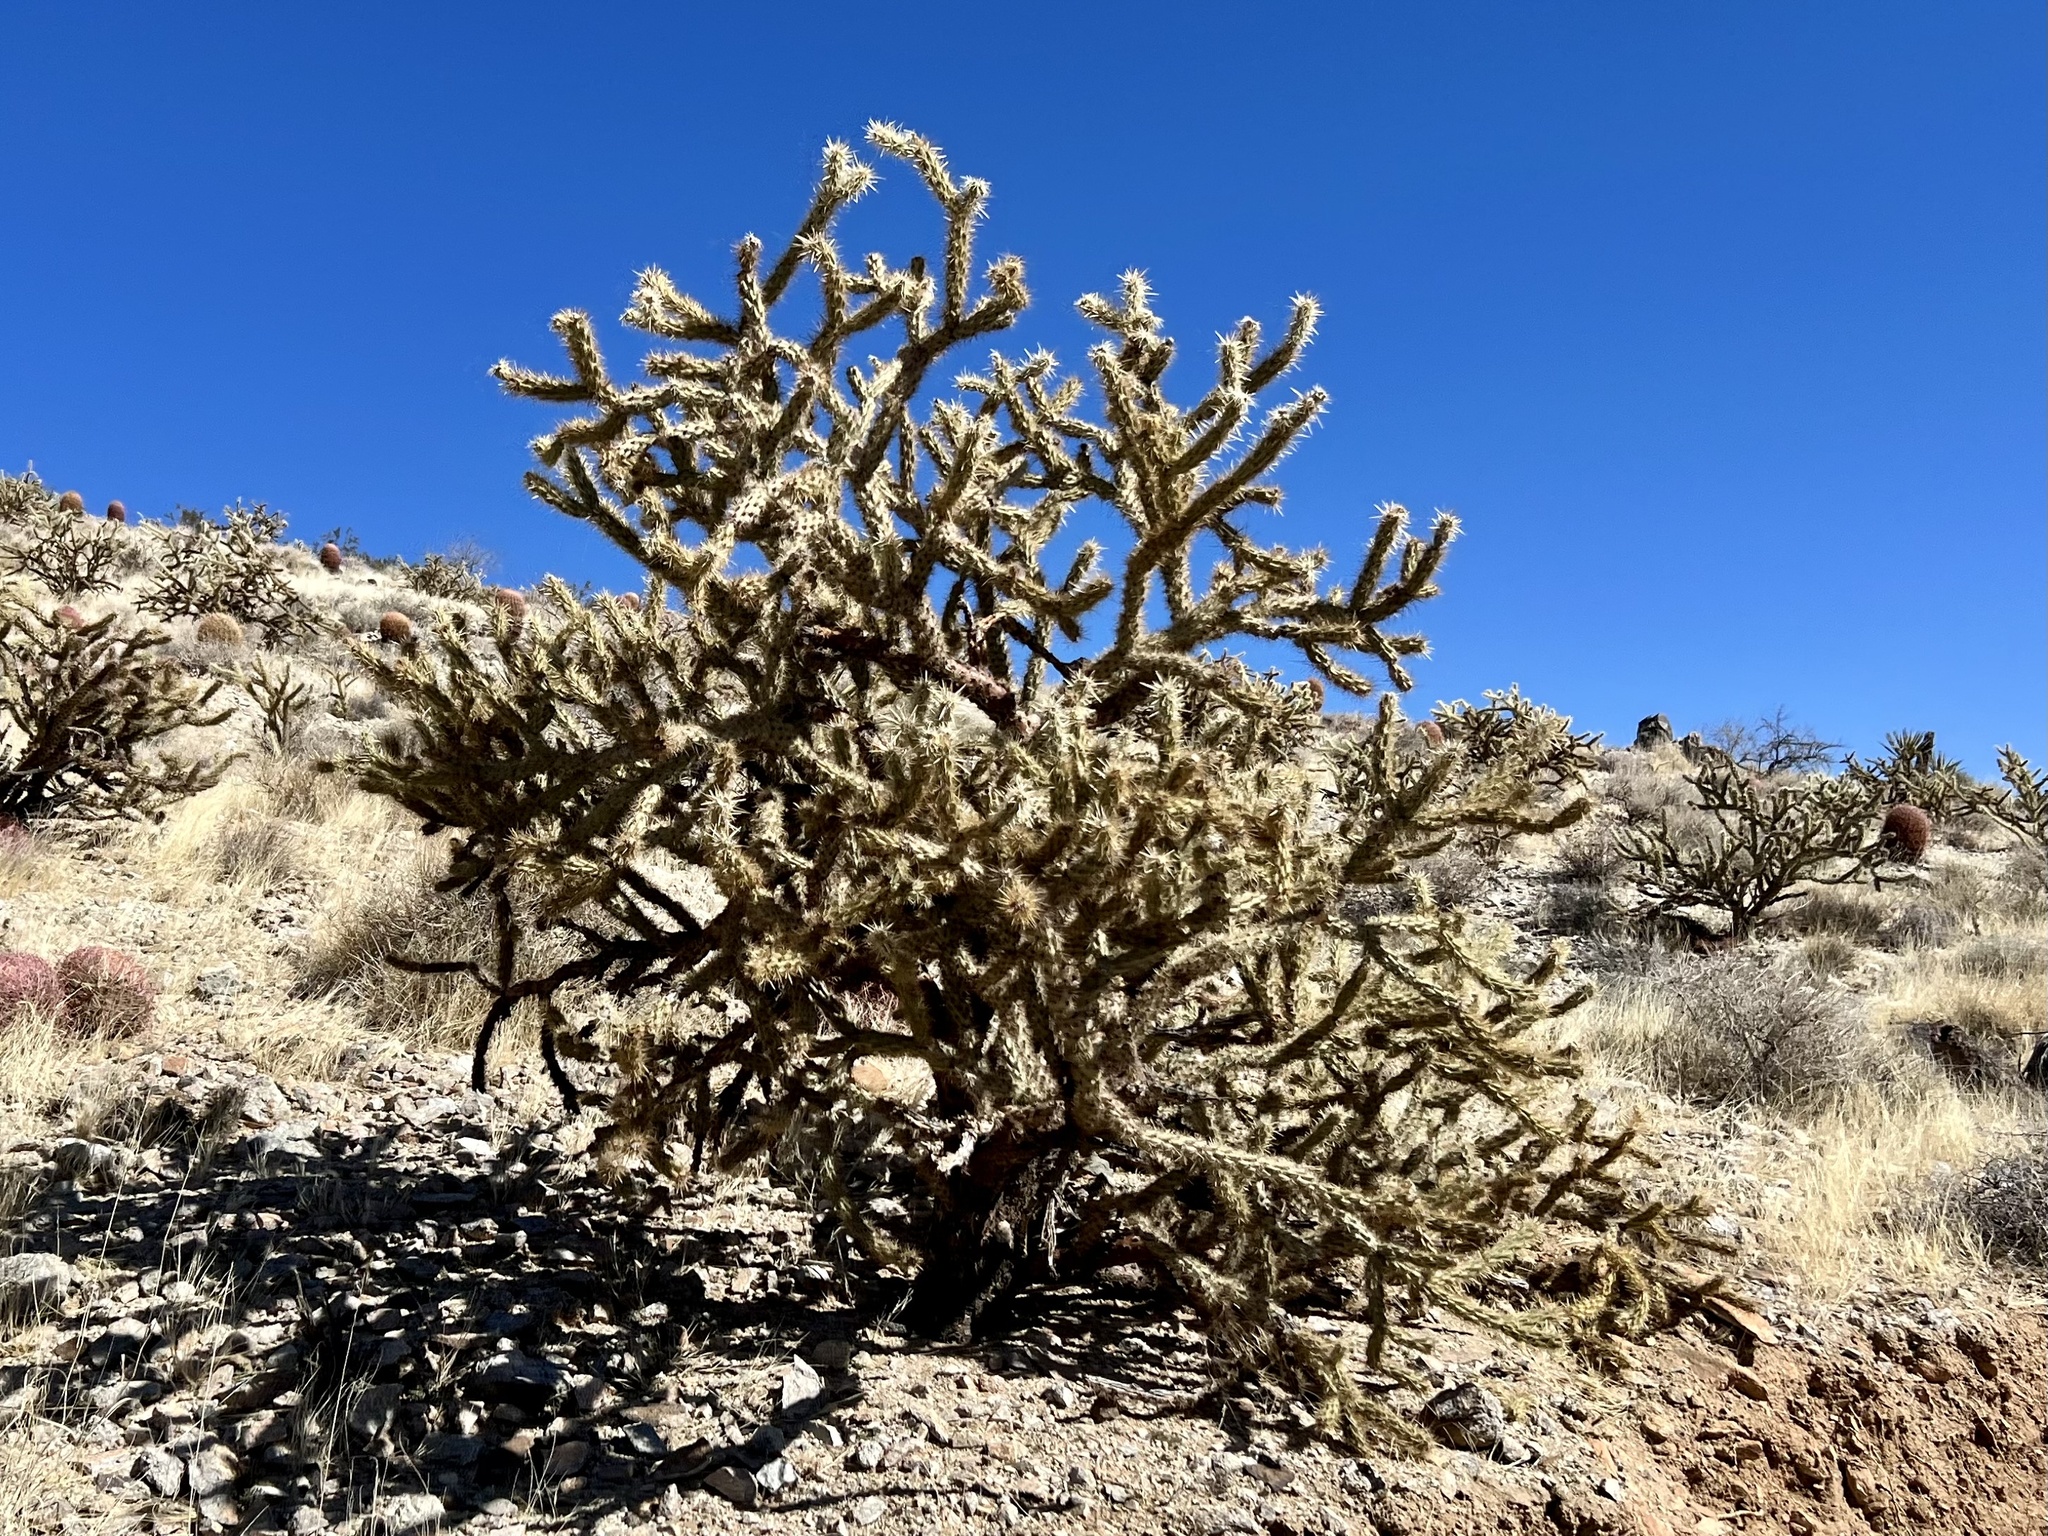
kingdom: Plantae
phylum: Tracheophyta
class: Magnoliopsida
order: Caryophyllales
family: Cactaceae
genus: Cylindropuntia
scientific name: Cylindropuntia acanthocarpa
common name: Buckhorn cholla
